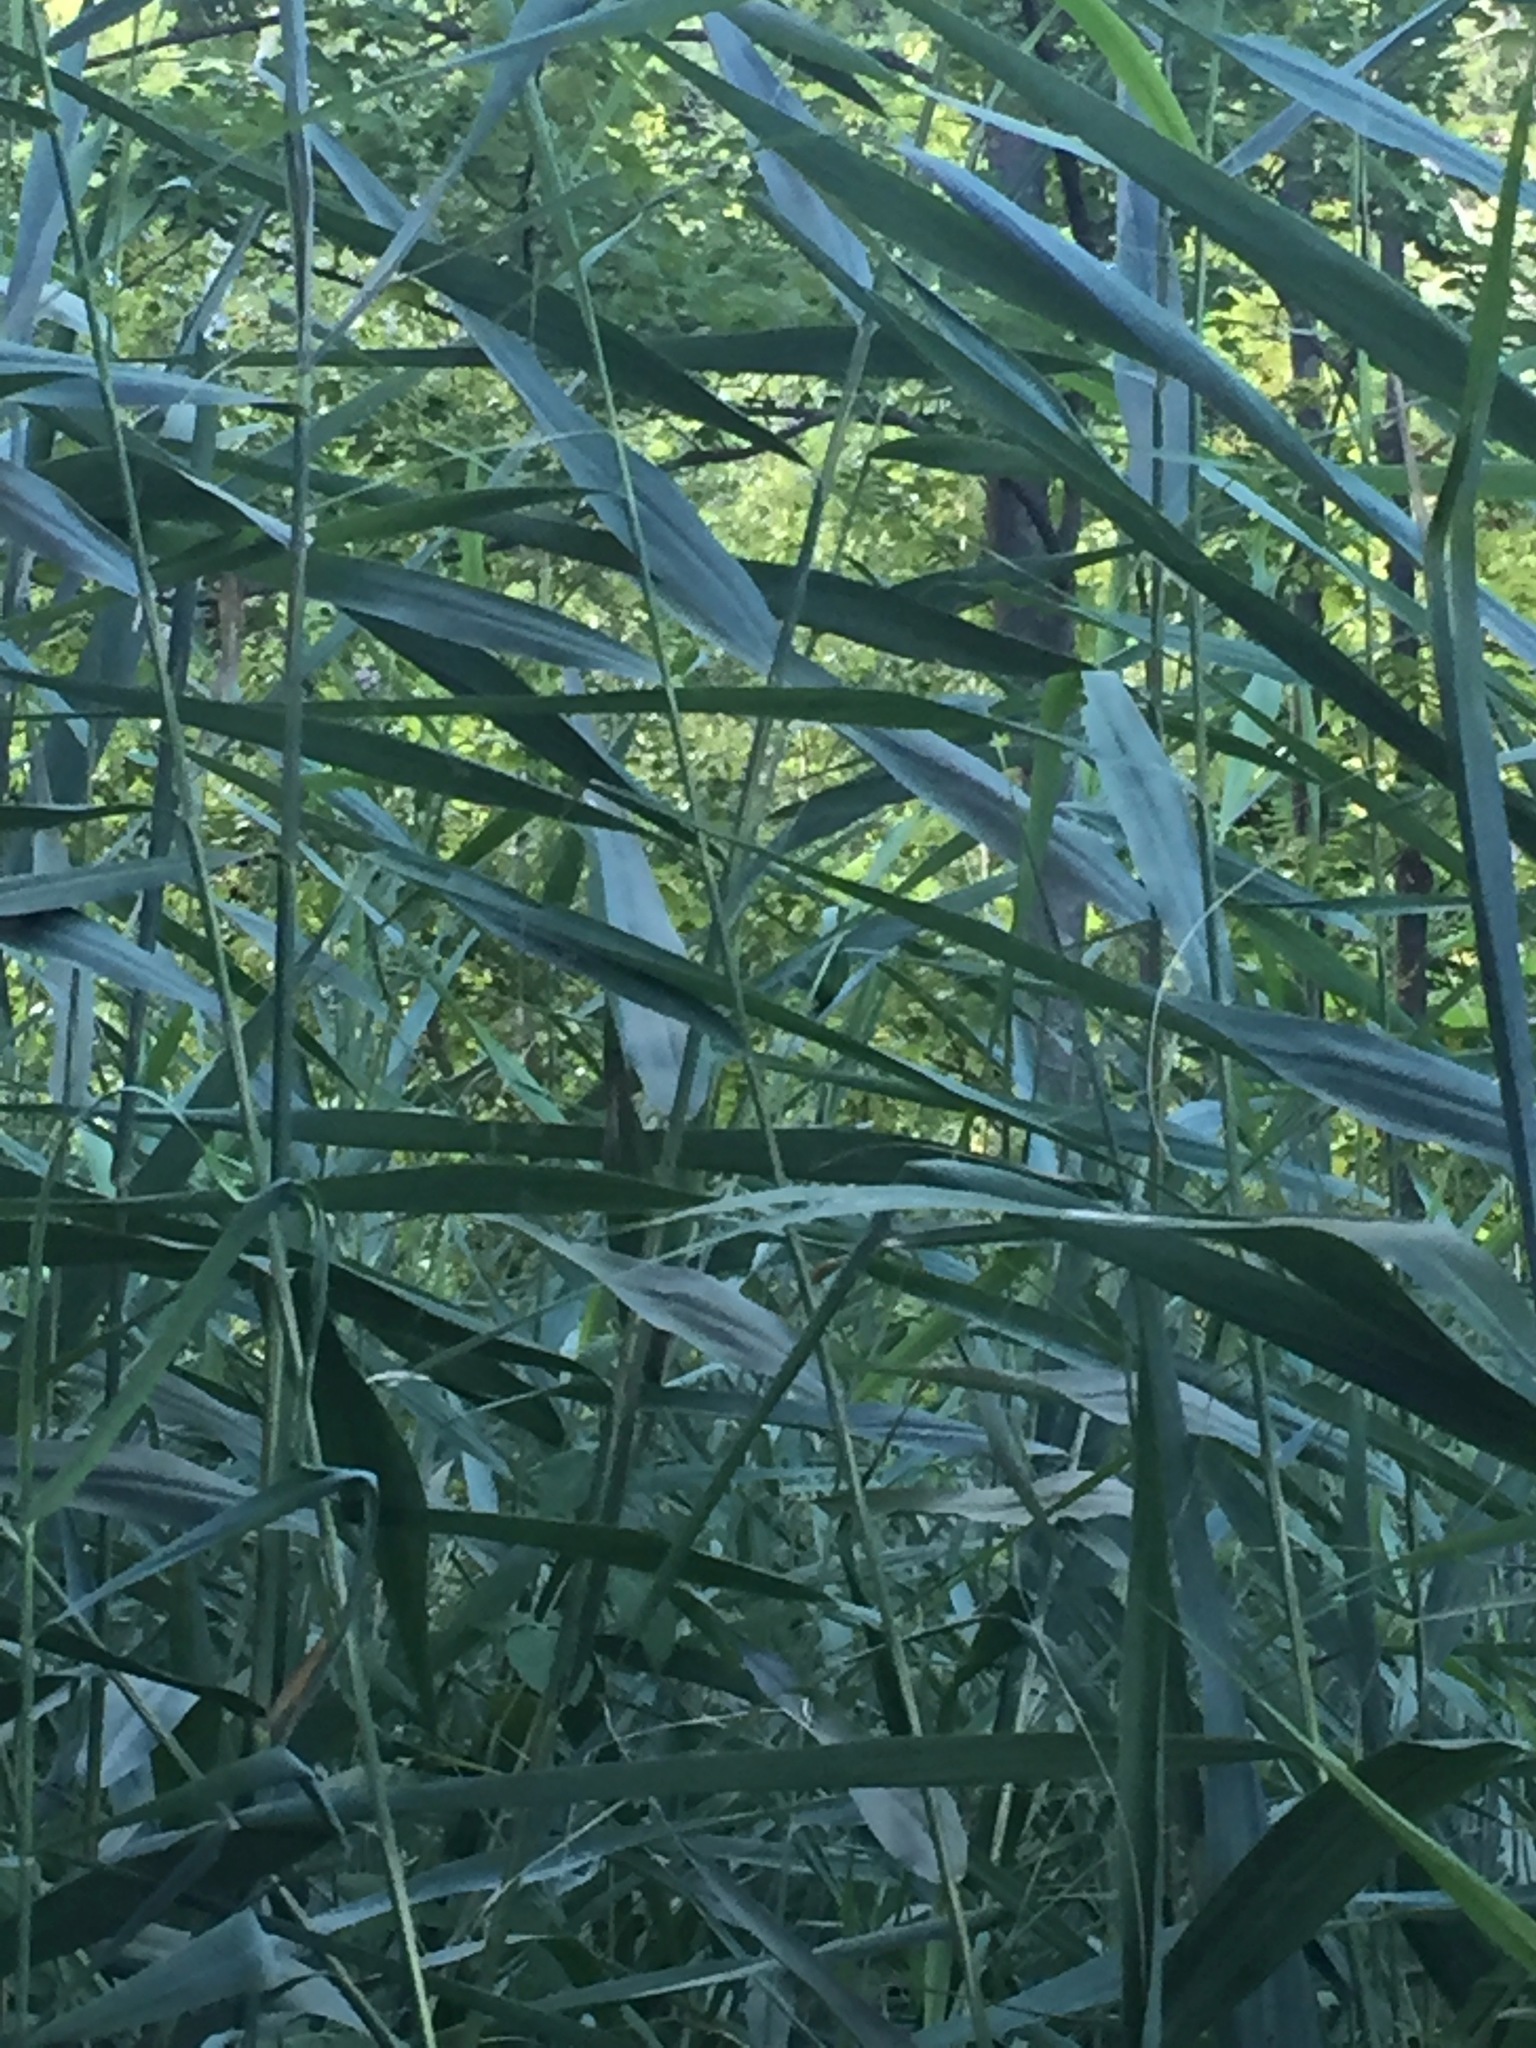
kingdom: Plantae
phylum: Tracheophyta
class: Liliopsida
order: Poales
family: Poaceae
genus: Phragmites
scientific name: Phragmites australis
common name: Common reed
